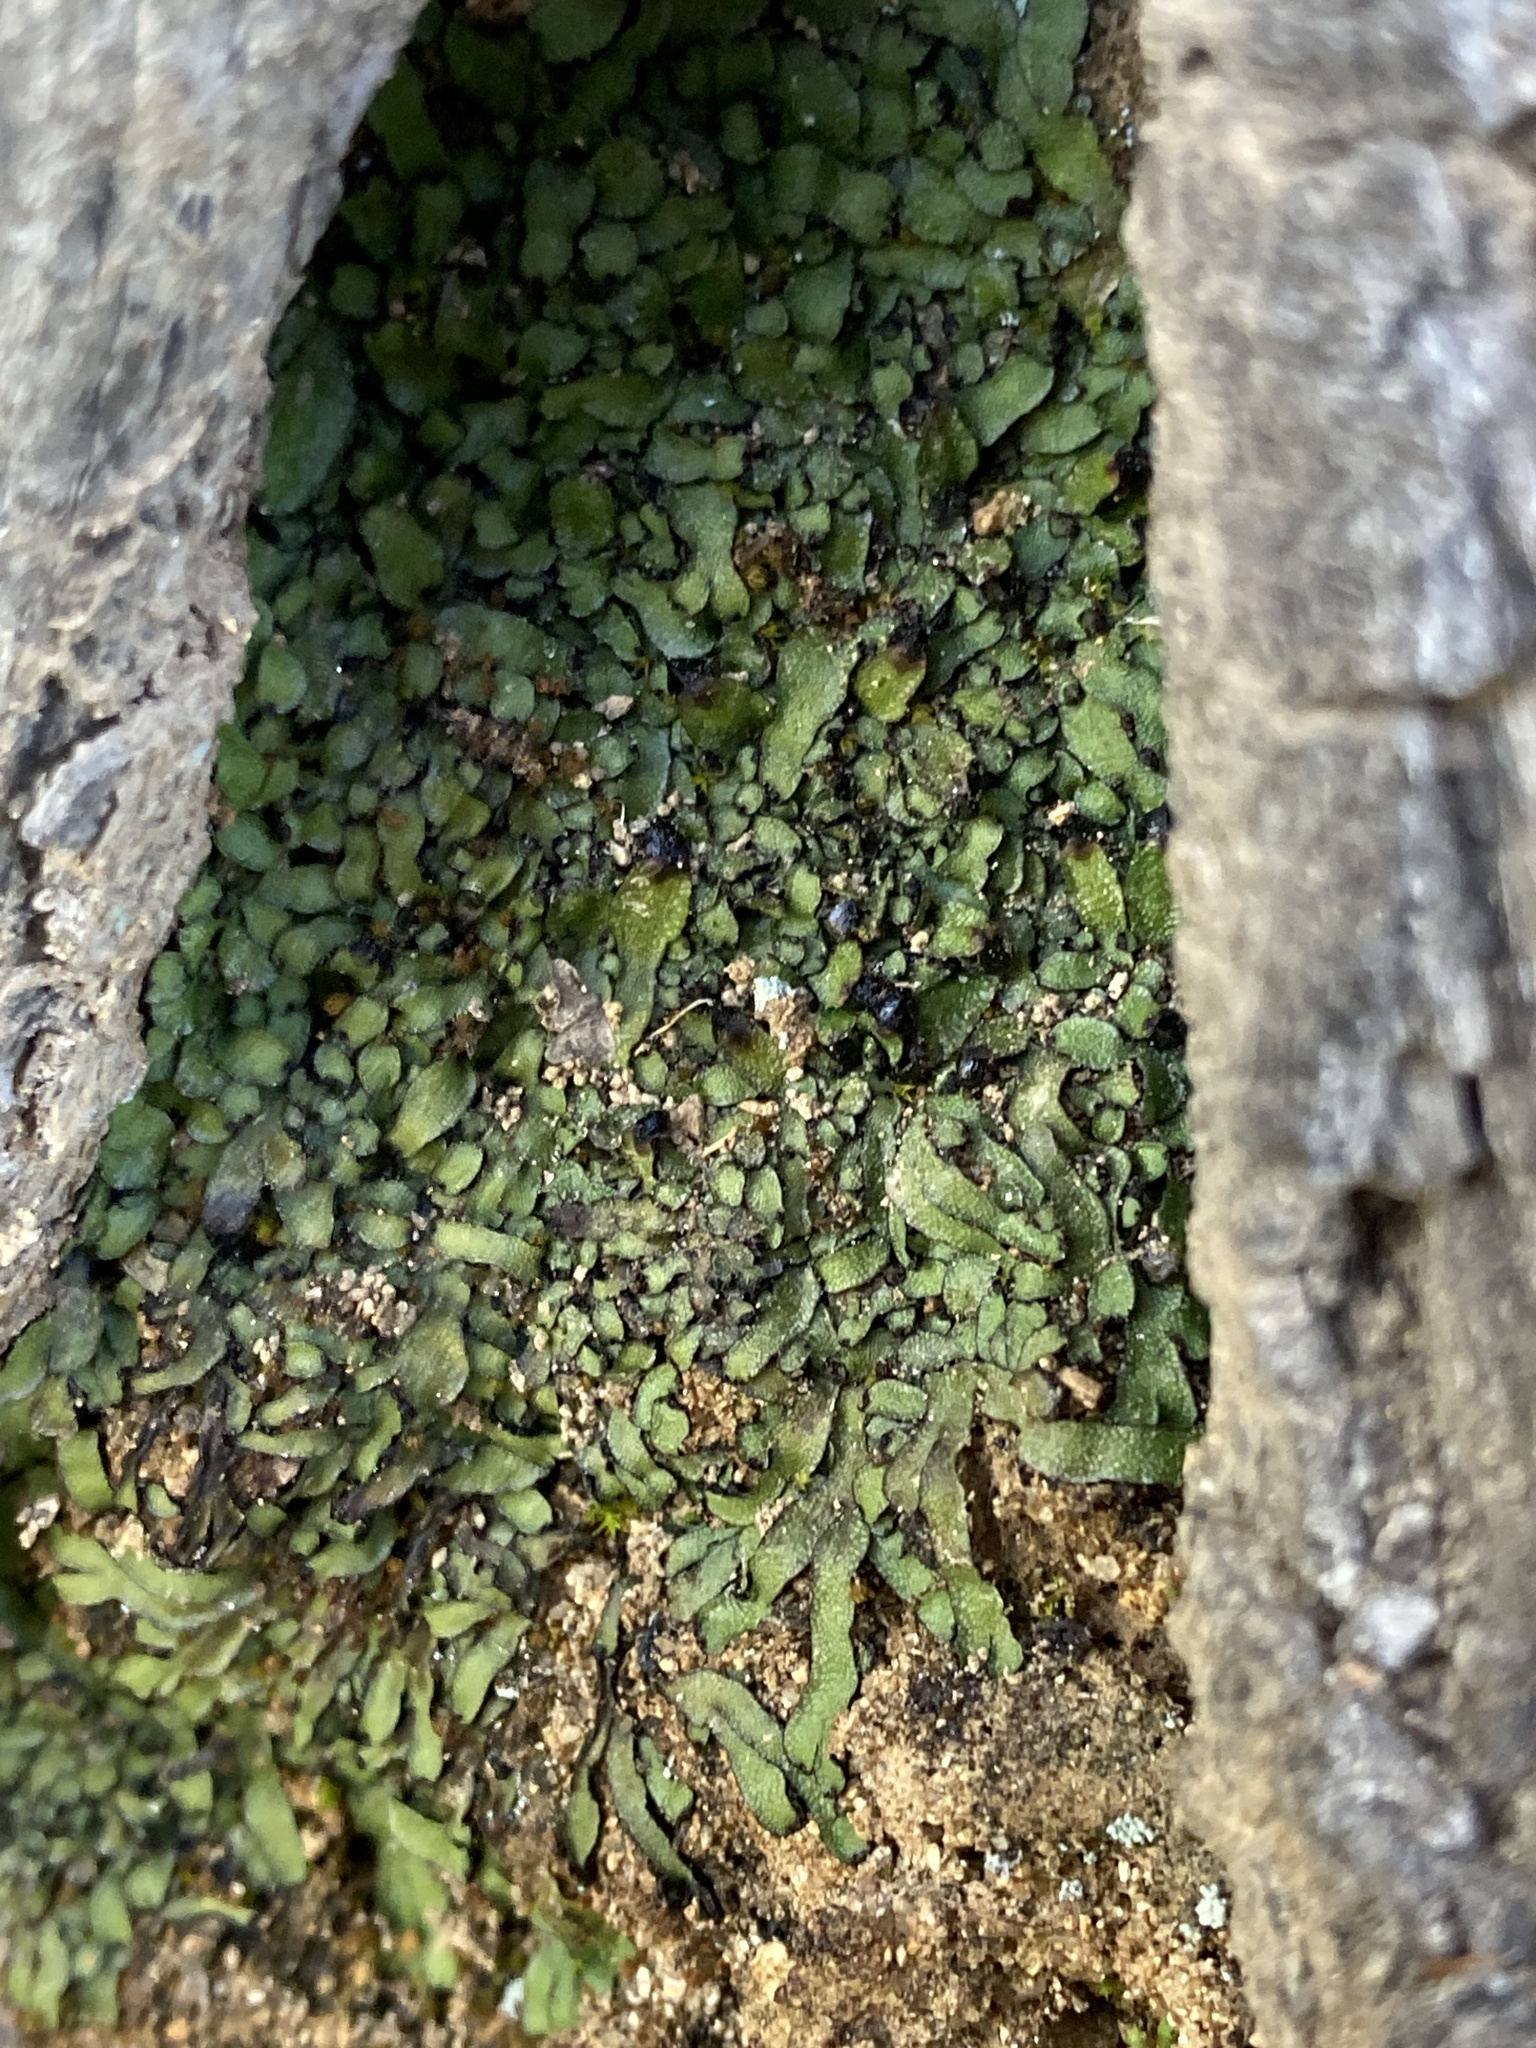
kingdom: Plantae
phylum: Marchantiophyta
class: Marchantiopsida
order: Marchantiales
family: Targioniaceae
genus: Targionia
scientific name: Targionia hypophylla
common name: Orobus-seed liverwort
